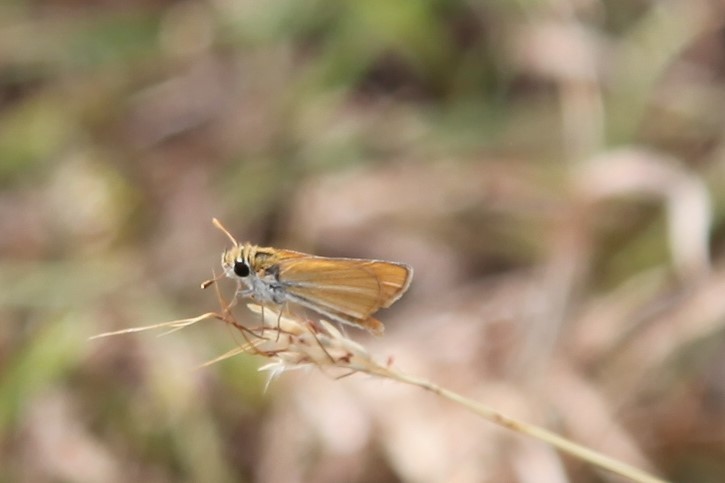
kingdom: Animalia
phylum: Arthropoda
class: Insecta
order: Lepidoptera
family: Hesperiidae
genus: Copaeodes
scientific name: Copaeodes minima
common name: Southern skipperling
